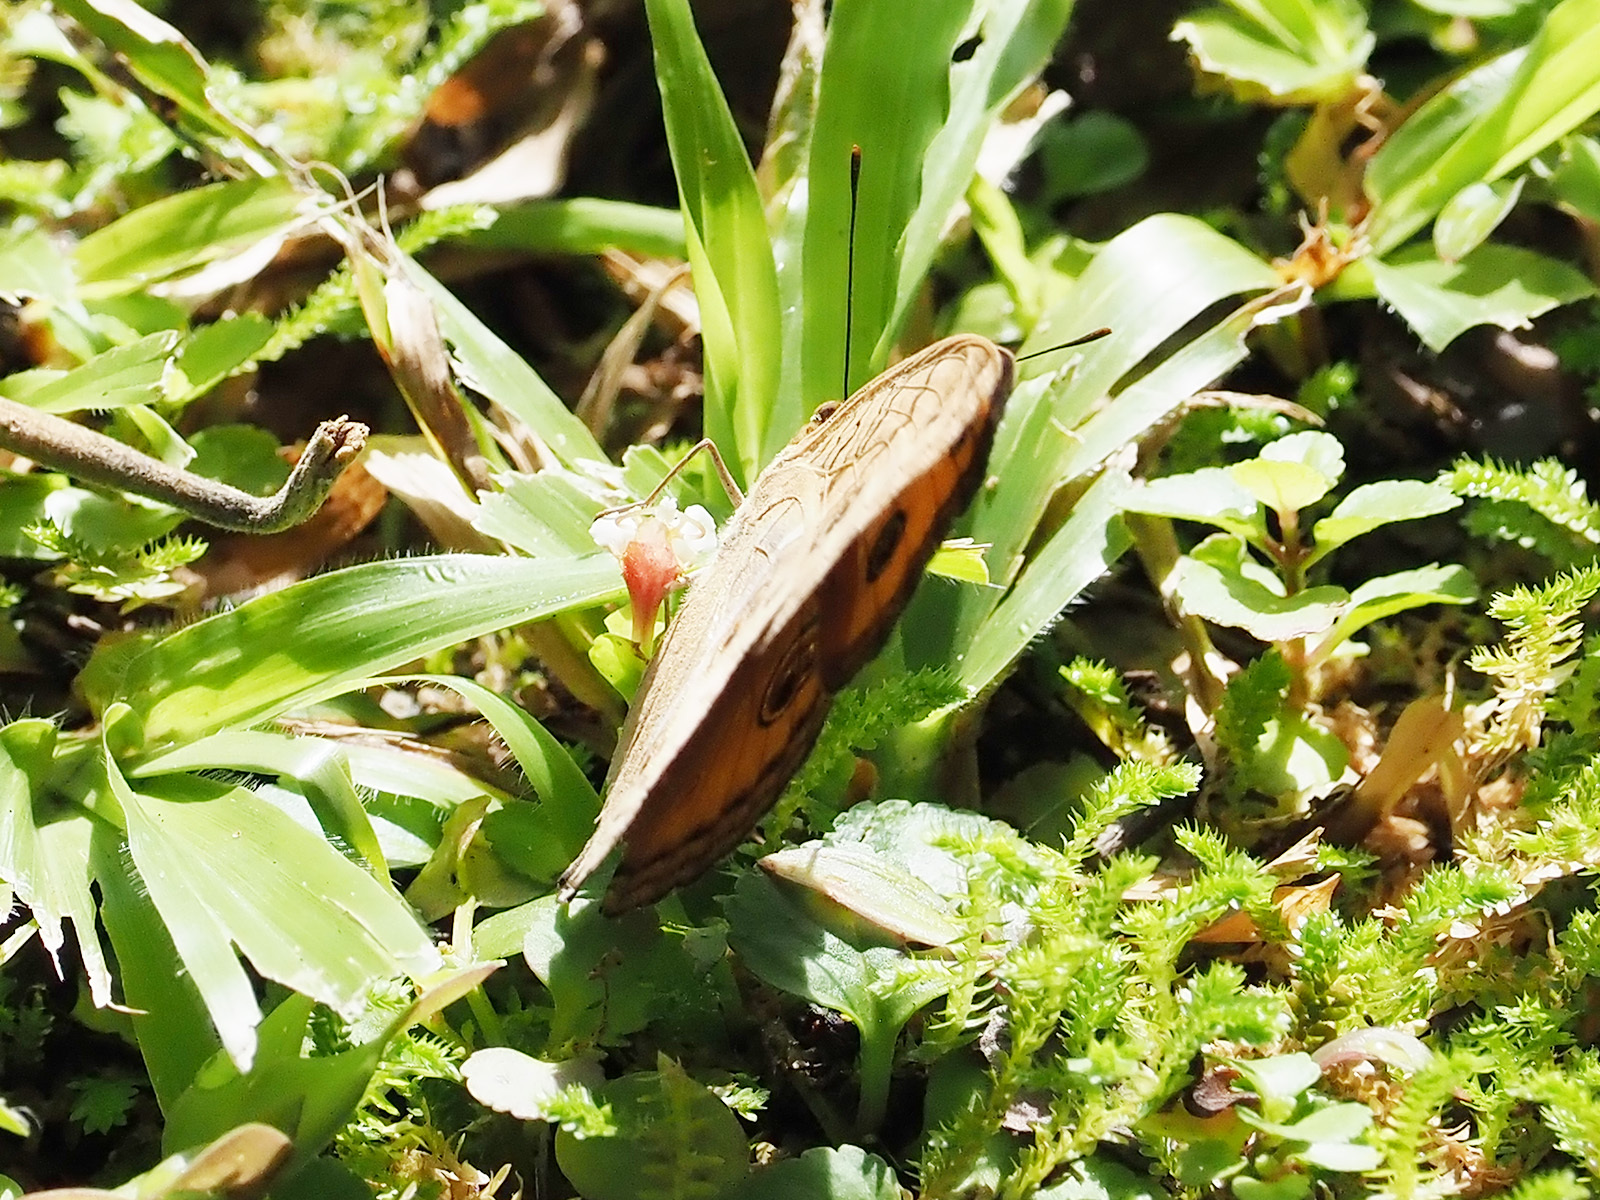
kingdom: Animalia
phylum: Arthropoda
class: Insecta
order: Lepidoptera
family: Nymphalidae
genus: Junonia
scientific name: Junonia almana
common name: Peacock pansy
